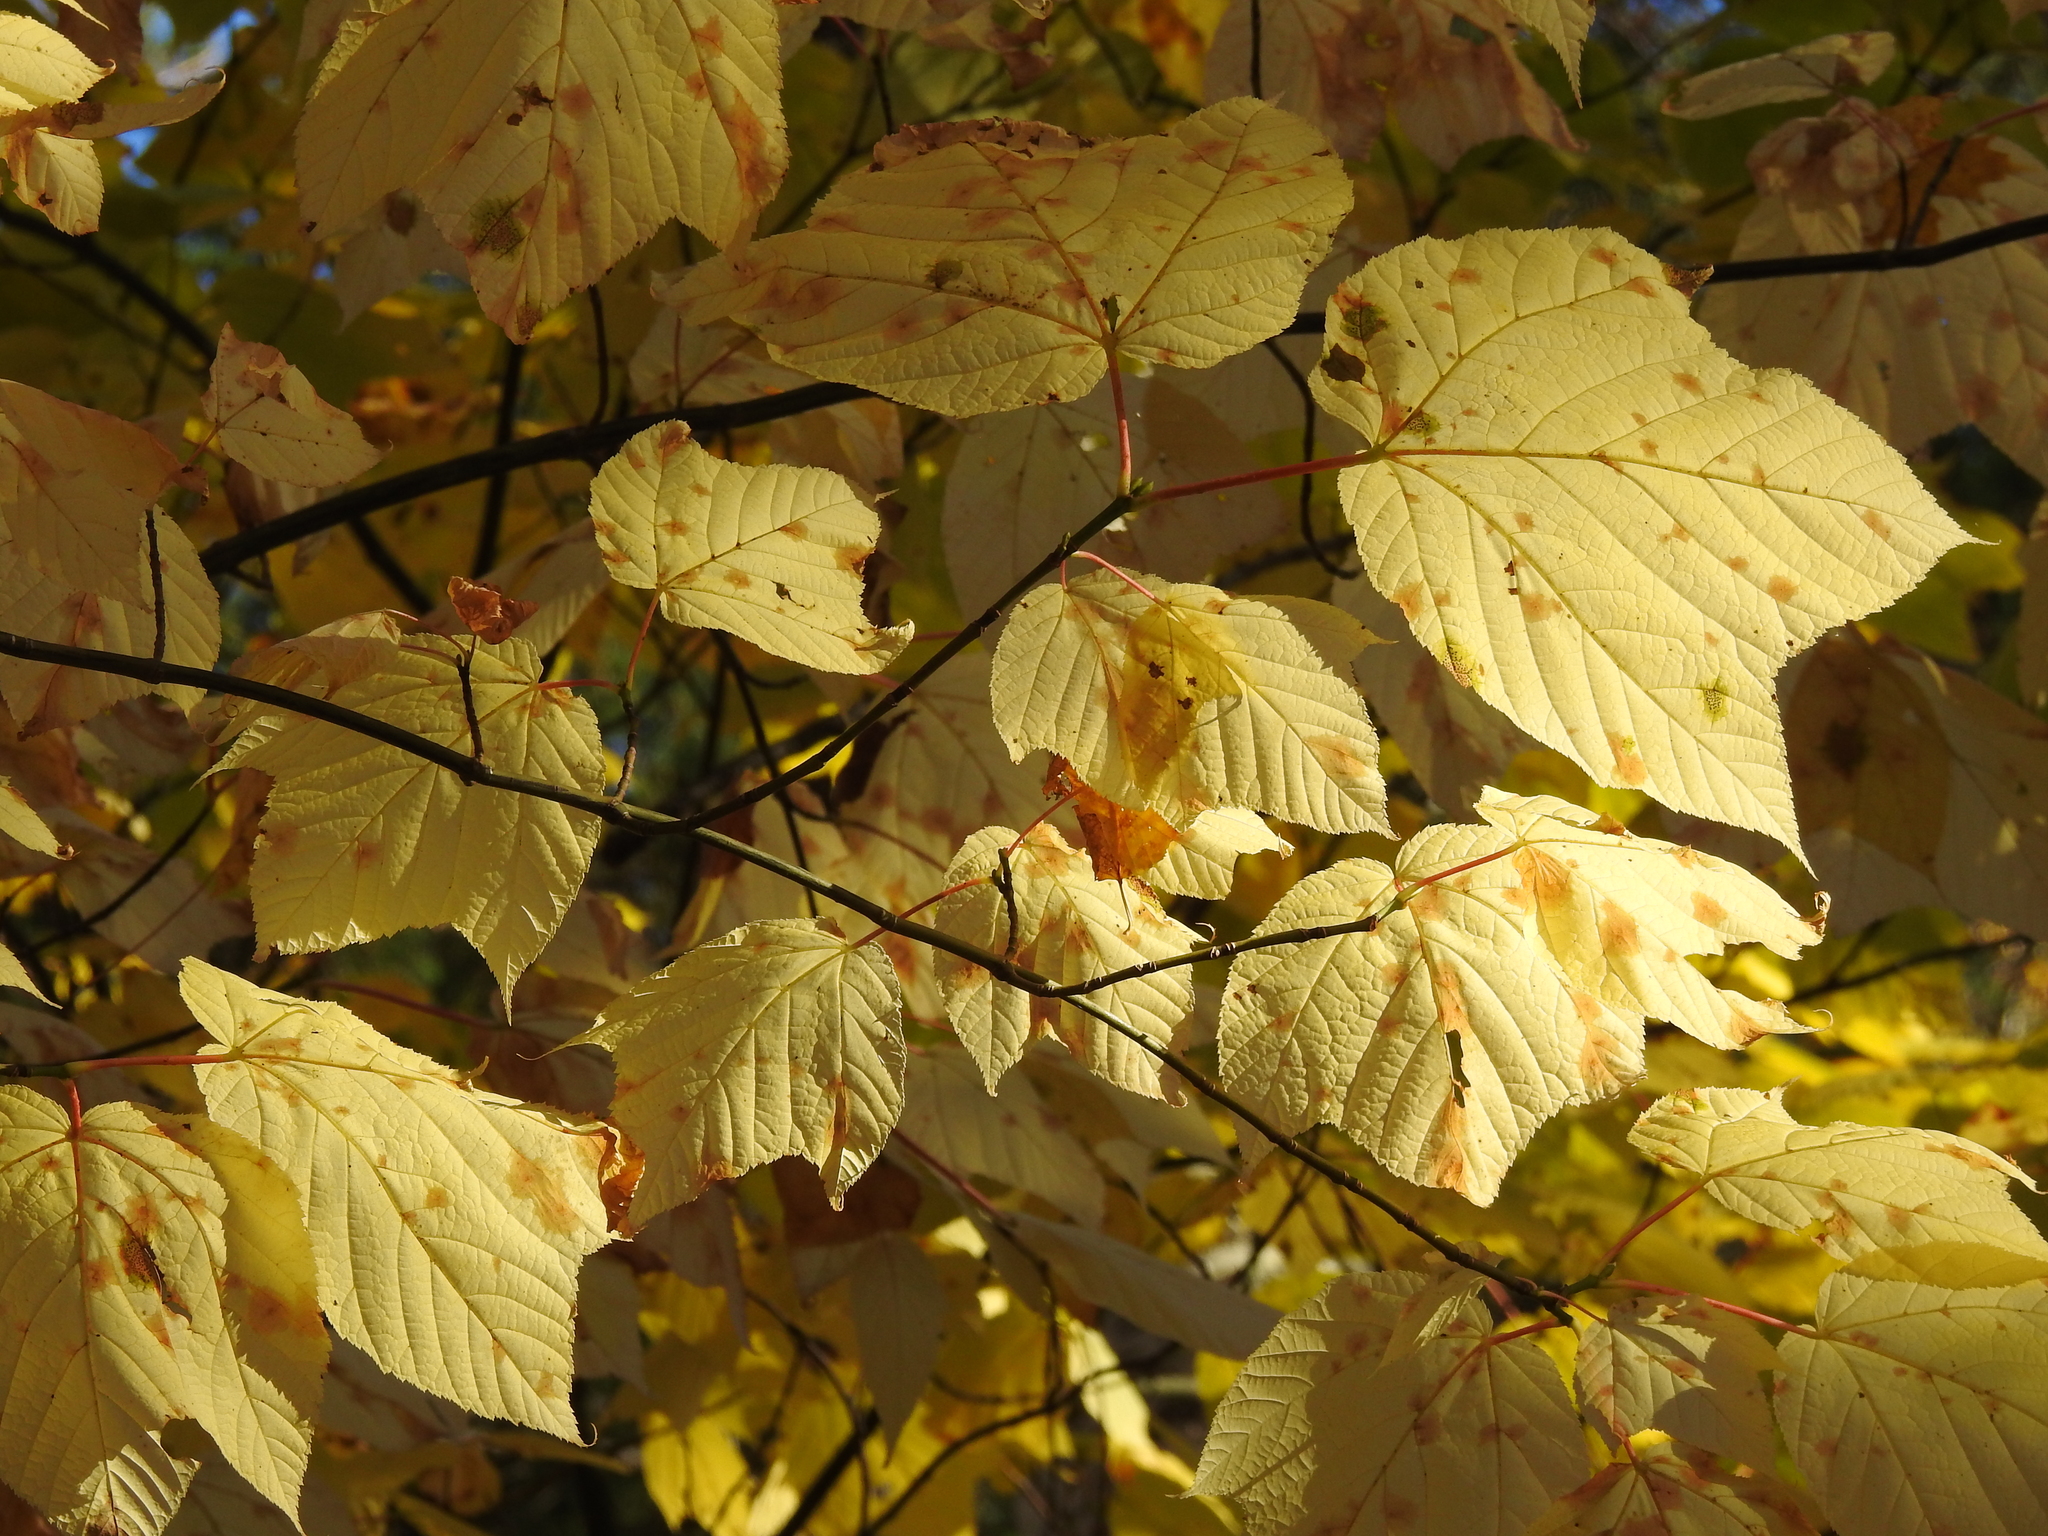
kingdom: Plantae
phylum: Tracheophyta
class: Magnoliopsida
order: Sapindales
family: Sapindaceae
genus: Acer
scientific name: Acer pensylvanicum
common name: Moosewood
